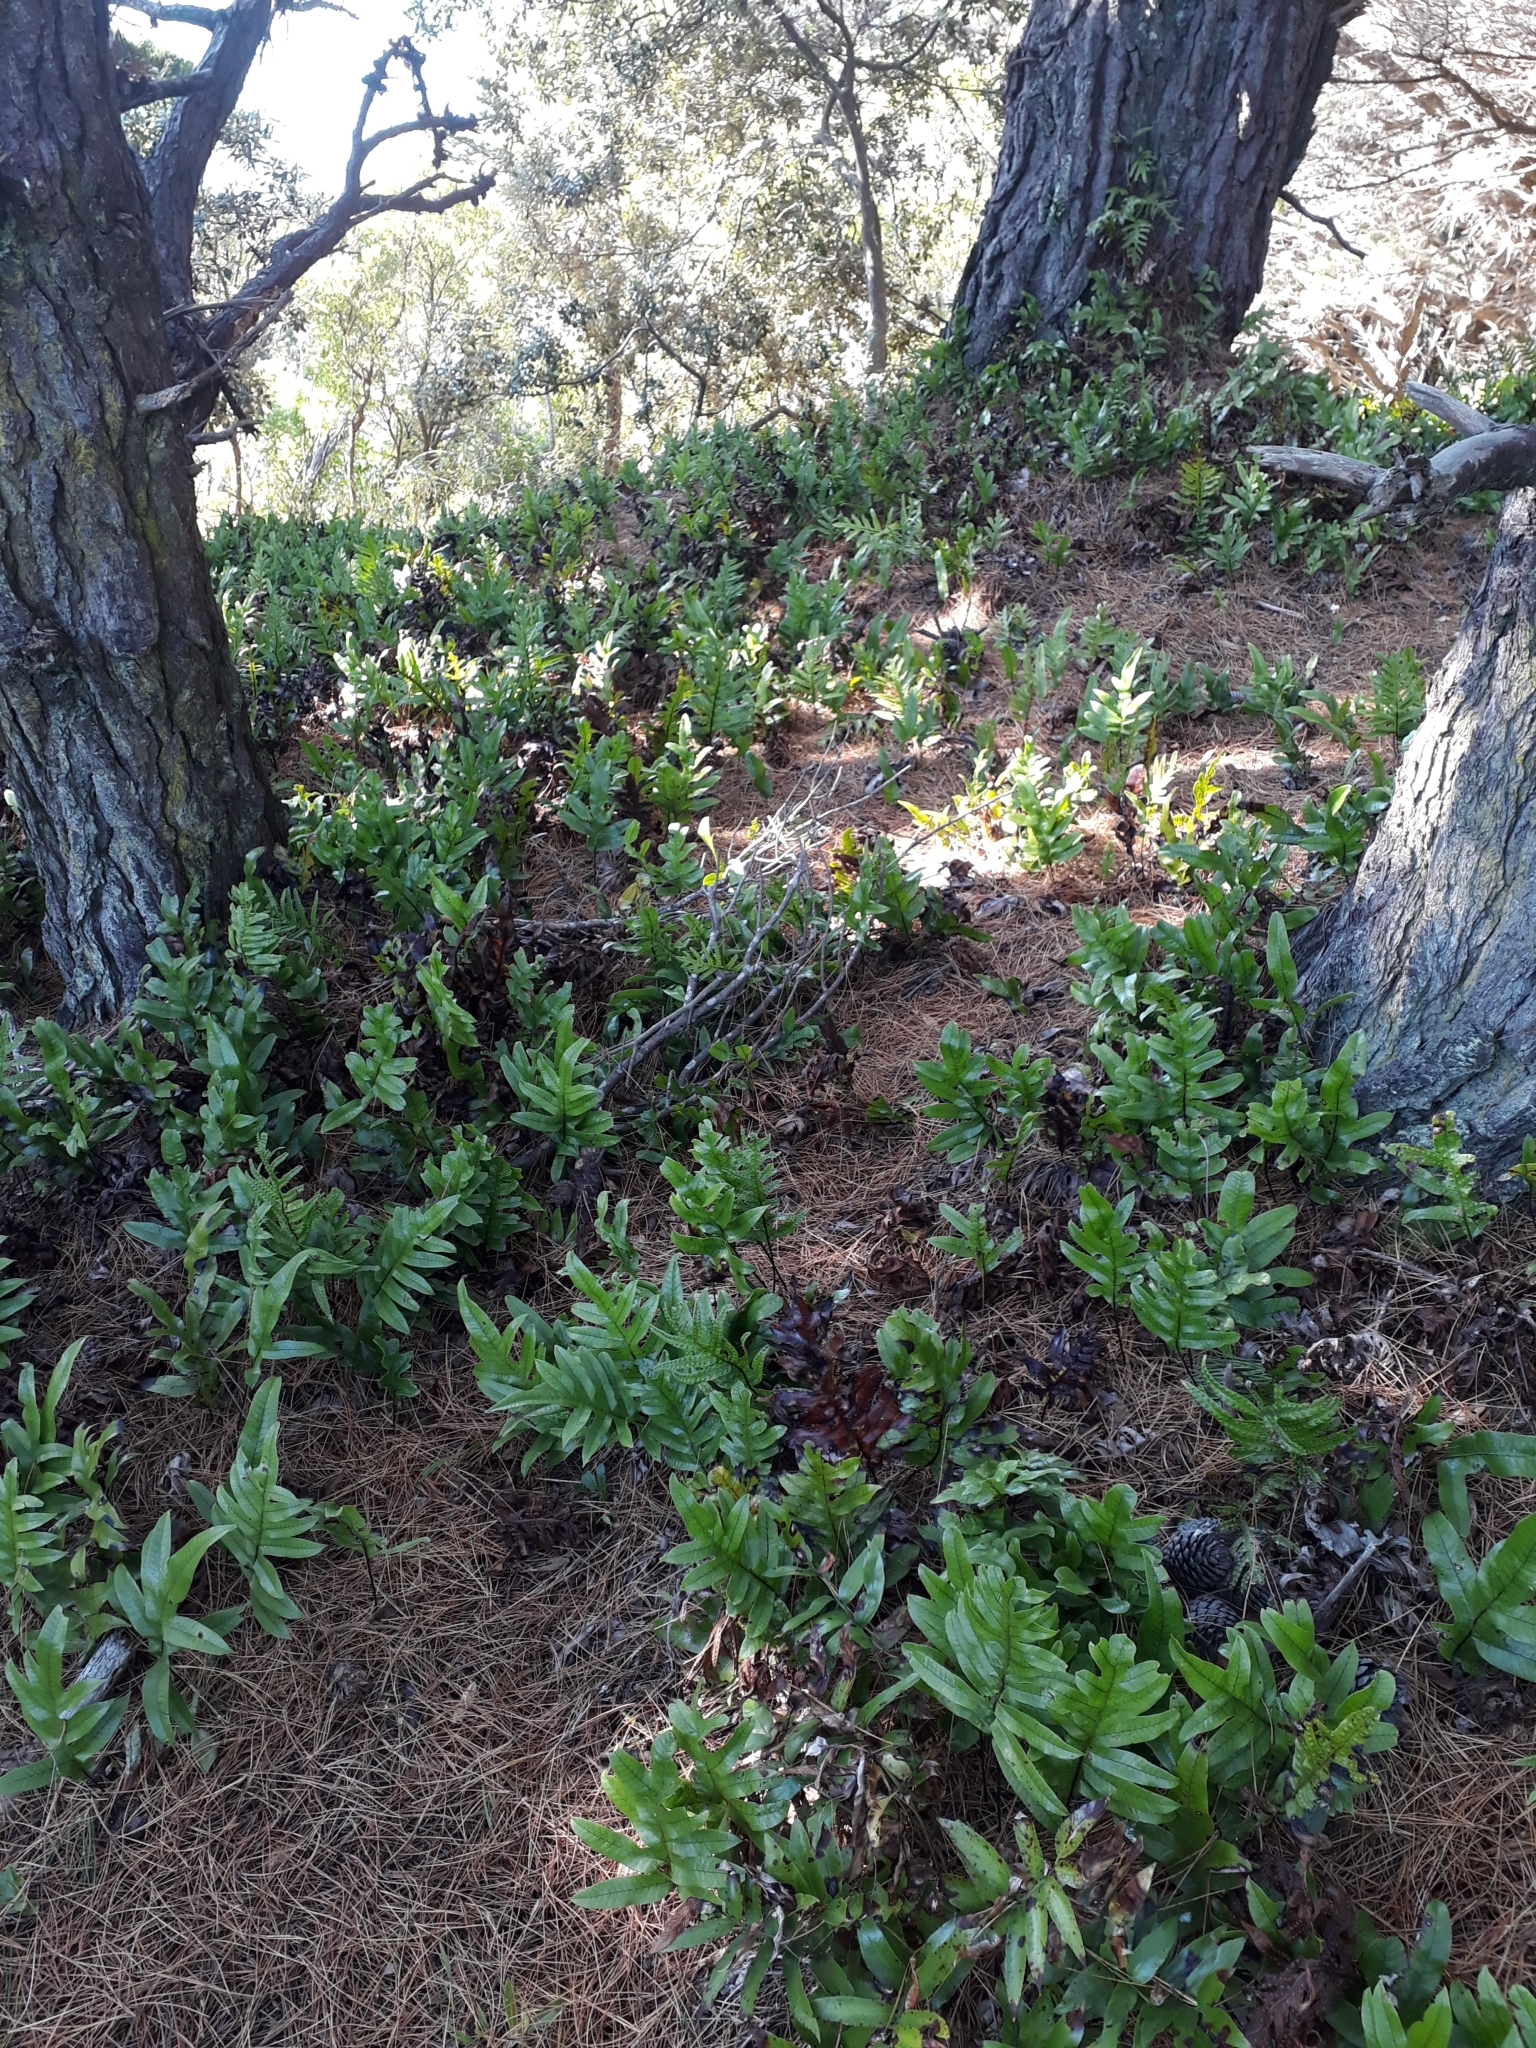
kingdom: Plantae
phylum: Tracheophyta
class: Polypodiopsida
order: Polypodiales
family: Polypodiaceae
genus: Lecanopteris
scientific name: Lecanopteris pustulata
